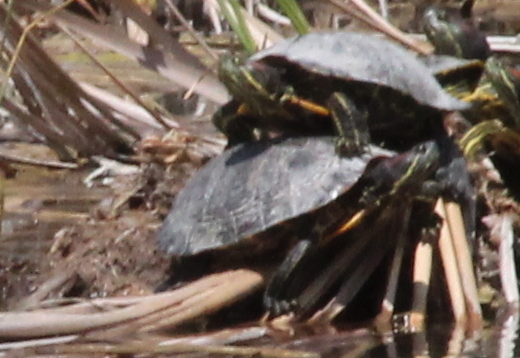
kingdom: Animalia
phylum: Chordata
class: Testudines
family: Emydidae
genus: Trachemys
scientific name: Trachemys scripta
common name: Slider
